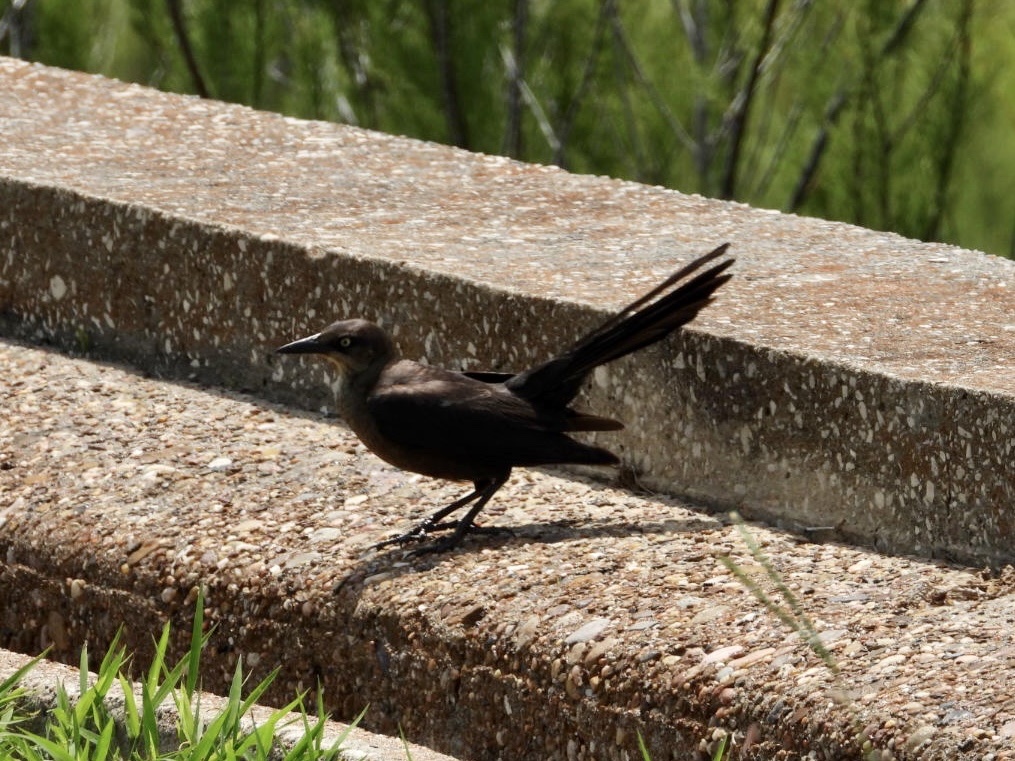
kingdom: Animalia
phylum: Chordata
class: Aves
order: Passeriformes
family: Icteridae
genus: Quiscalus
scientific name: Quiscalus mexicanus
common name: Great-tailed grackle
